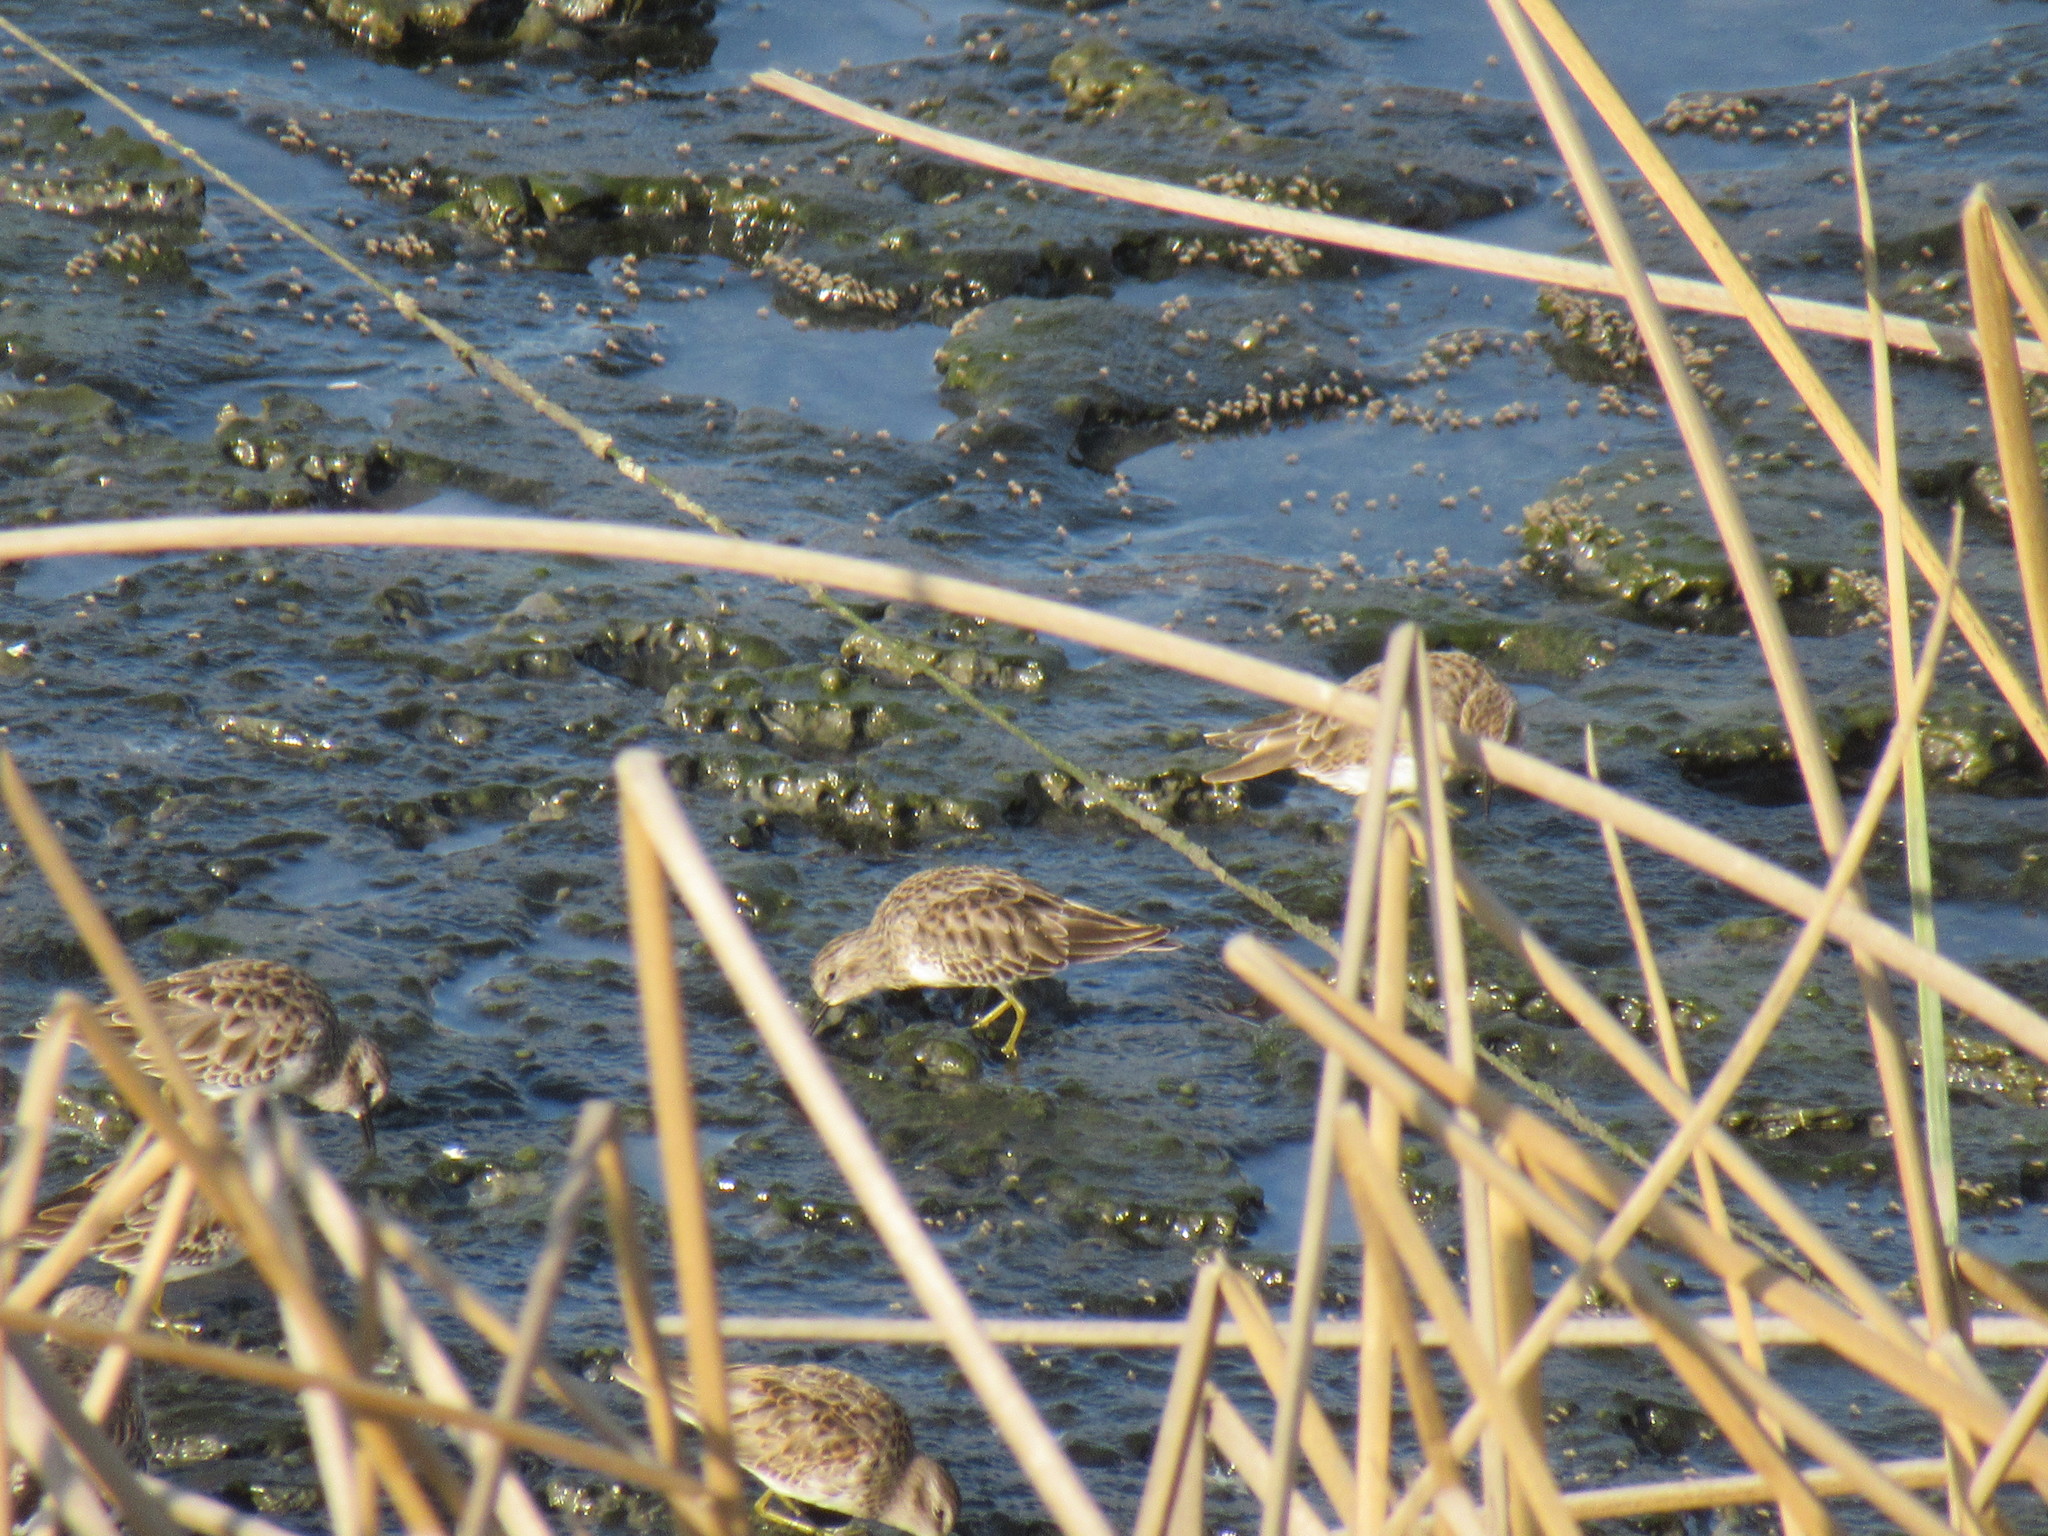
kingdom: Animalia
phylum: Chordata
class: Aves
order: Charadriiformes
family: Scolopacidae
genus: Calidris
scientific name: Calidris minutilla
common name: Least sandpiper
